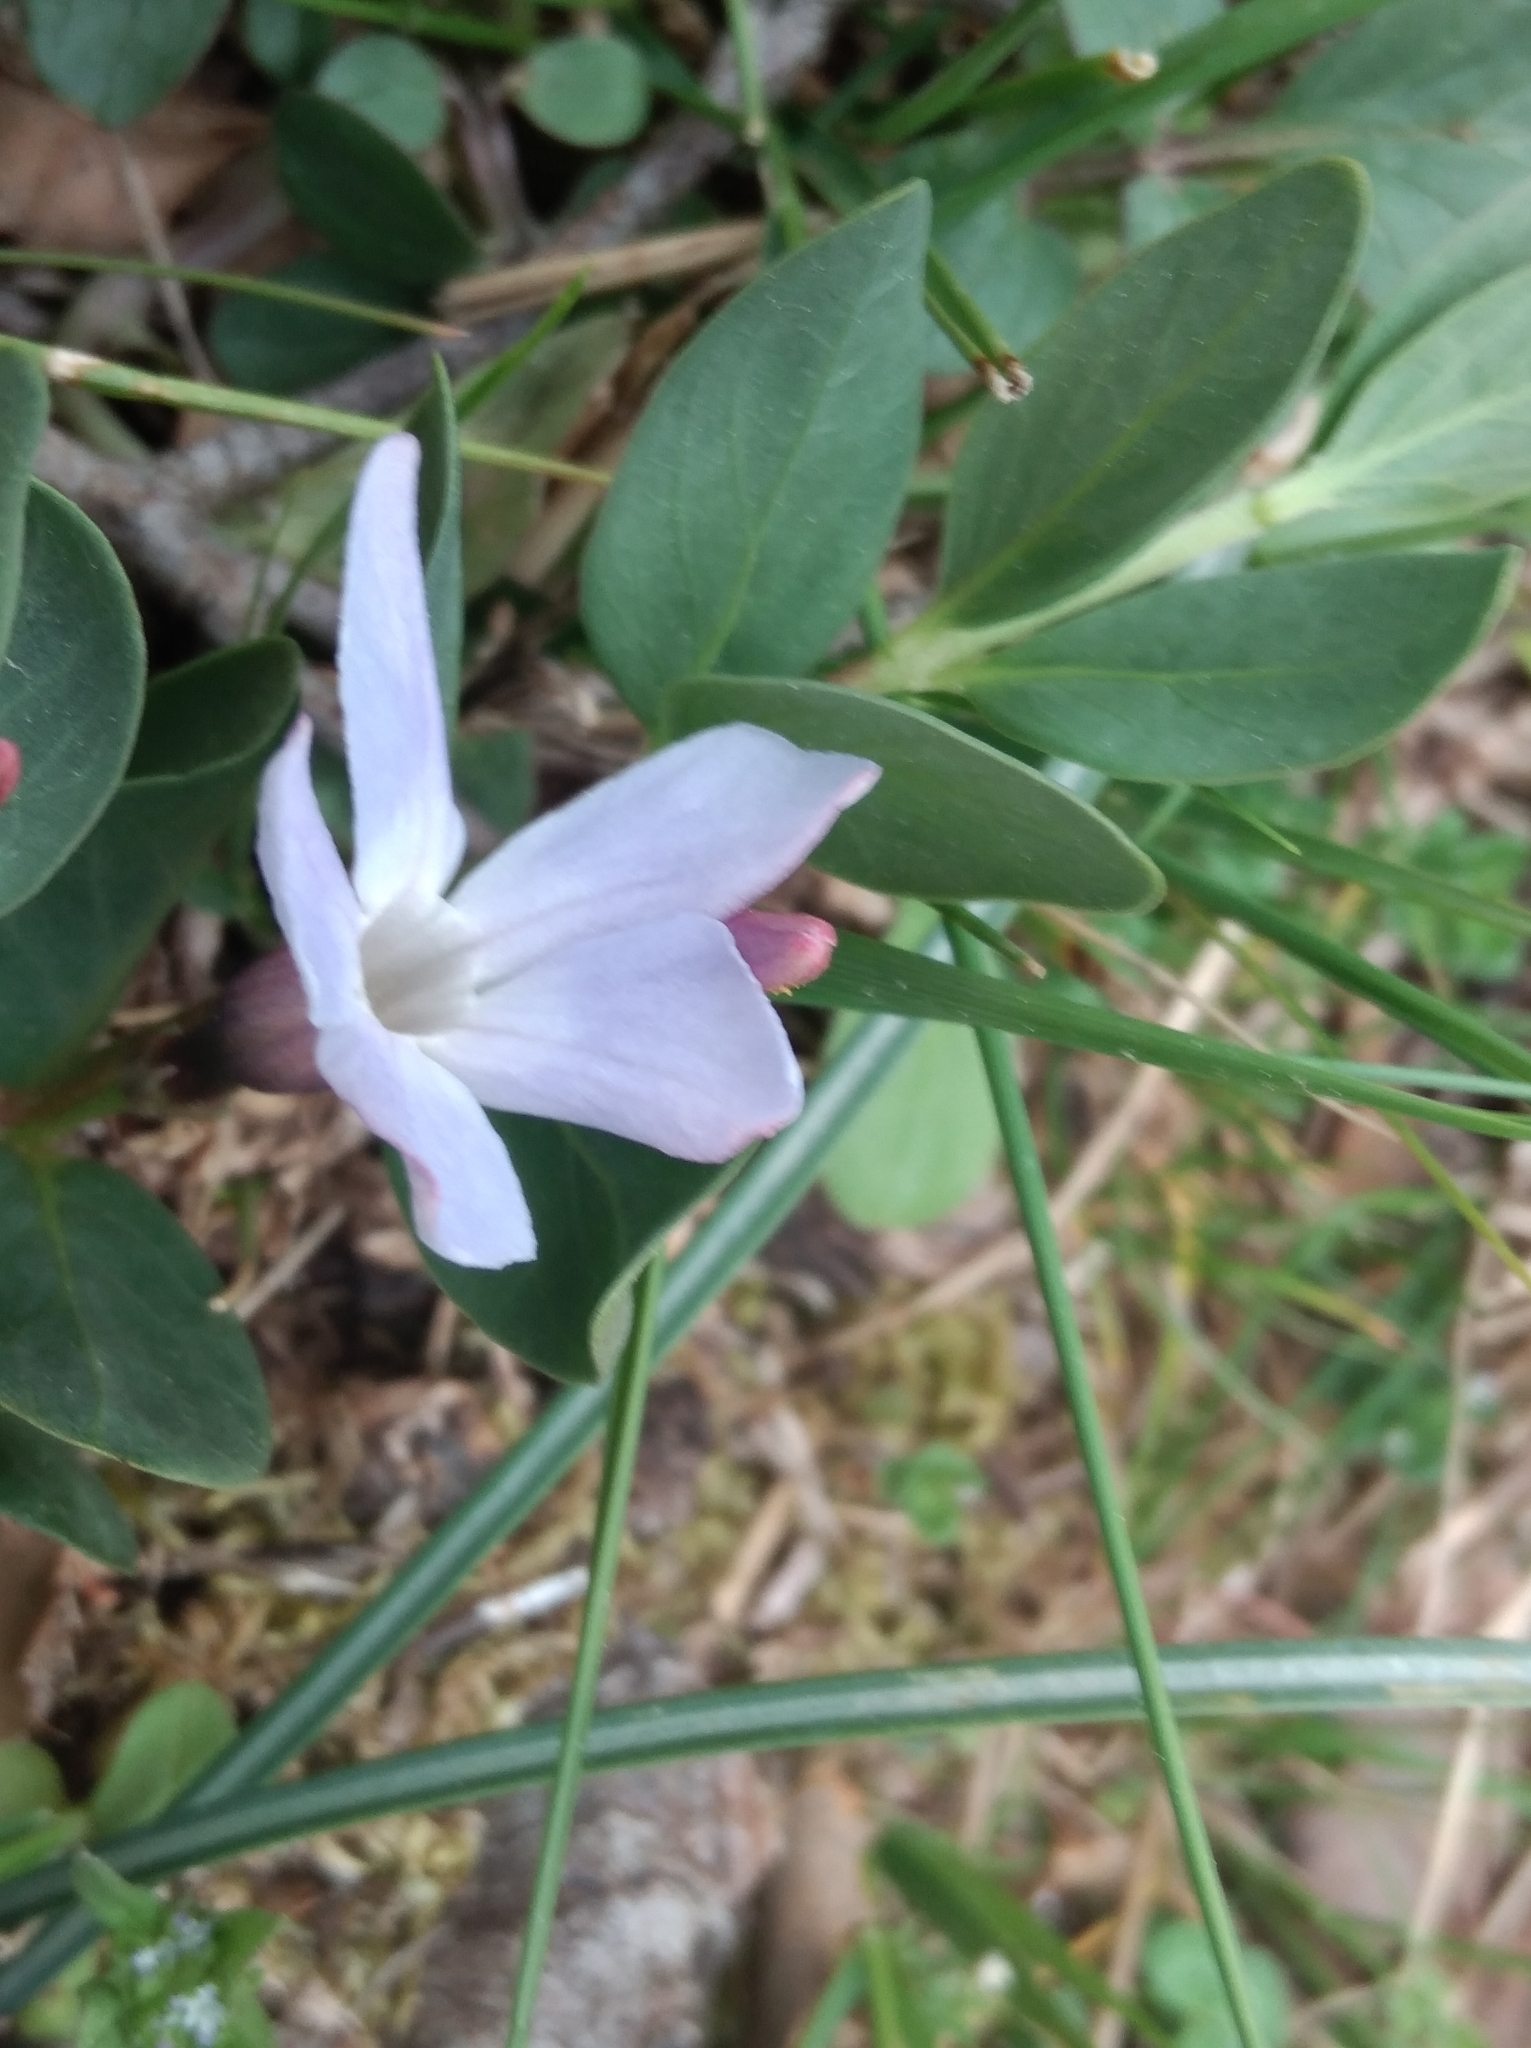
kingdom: Plantae
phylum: Tracheophyta
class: Magnoliopsida
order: Gentianales
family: Apocynaceae
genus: Vinca
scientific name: Vinca herbacea
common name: Herbaceous periwinkle
